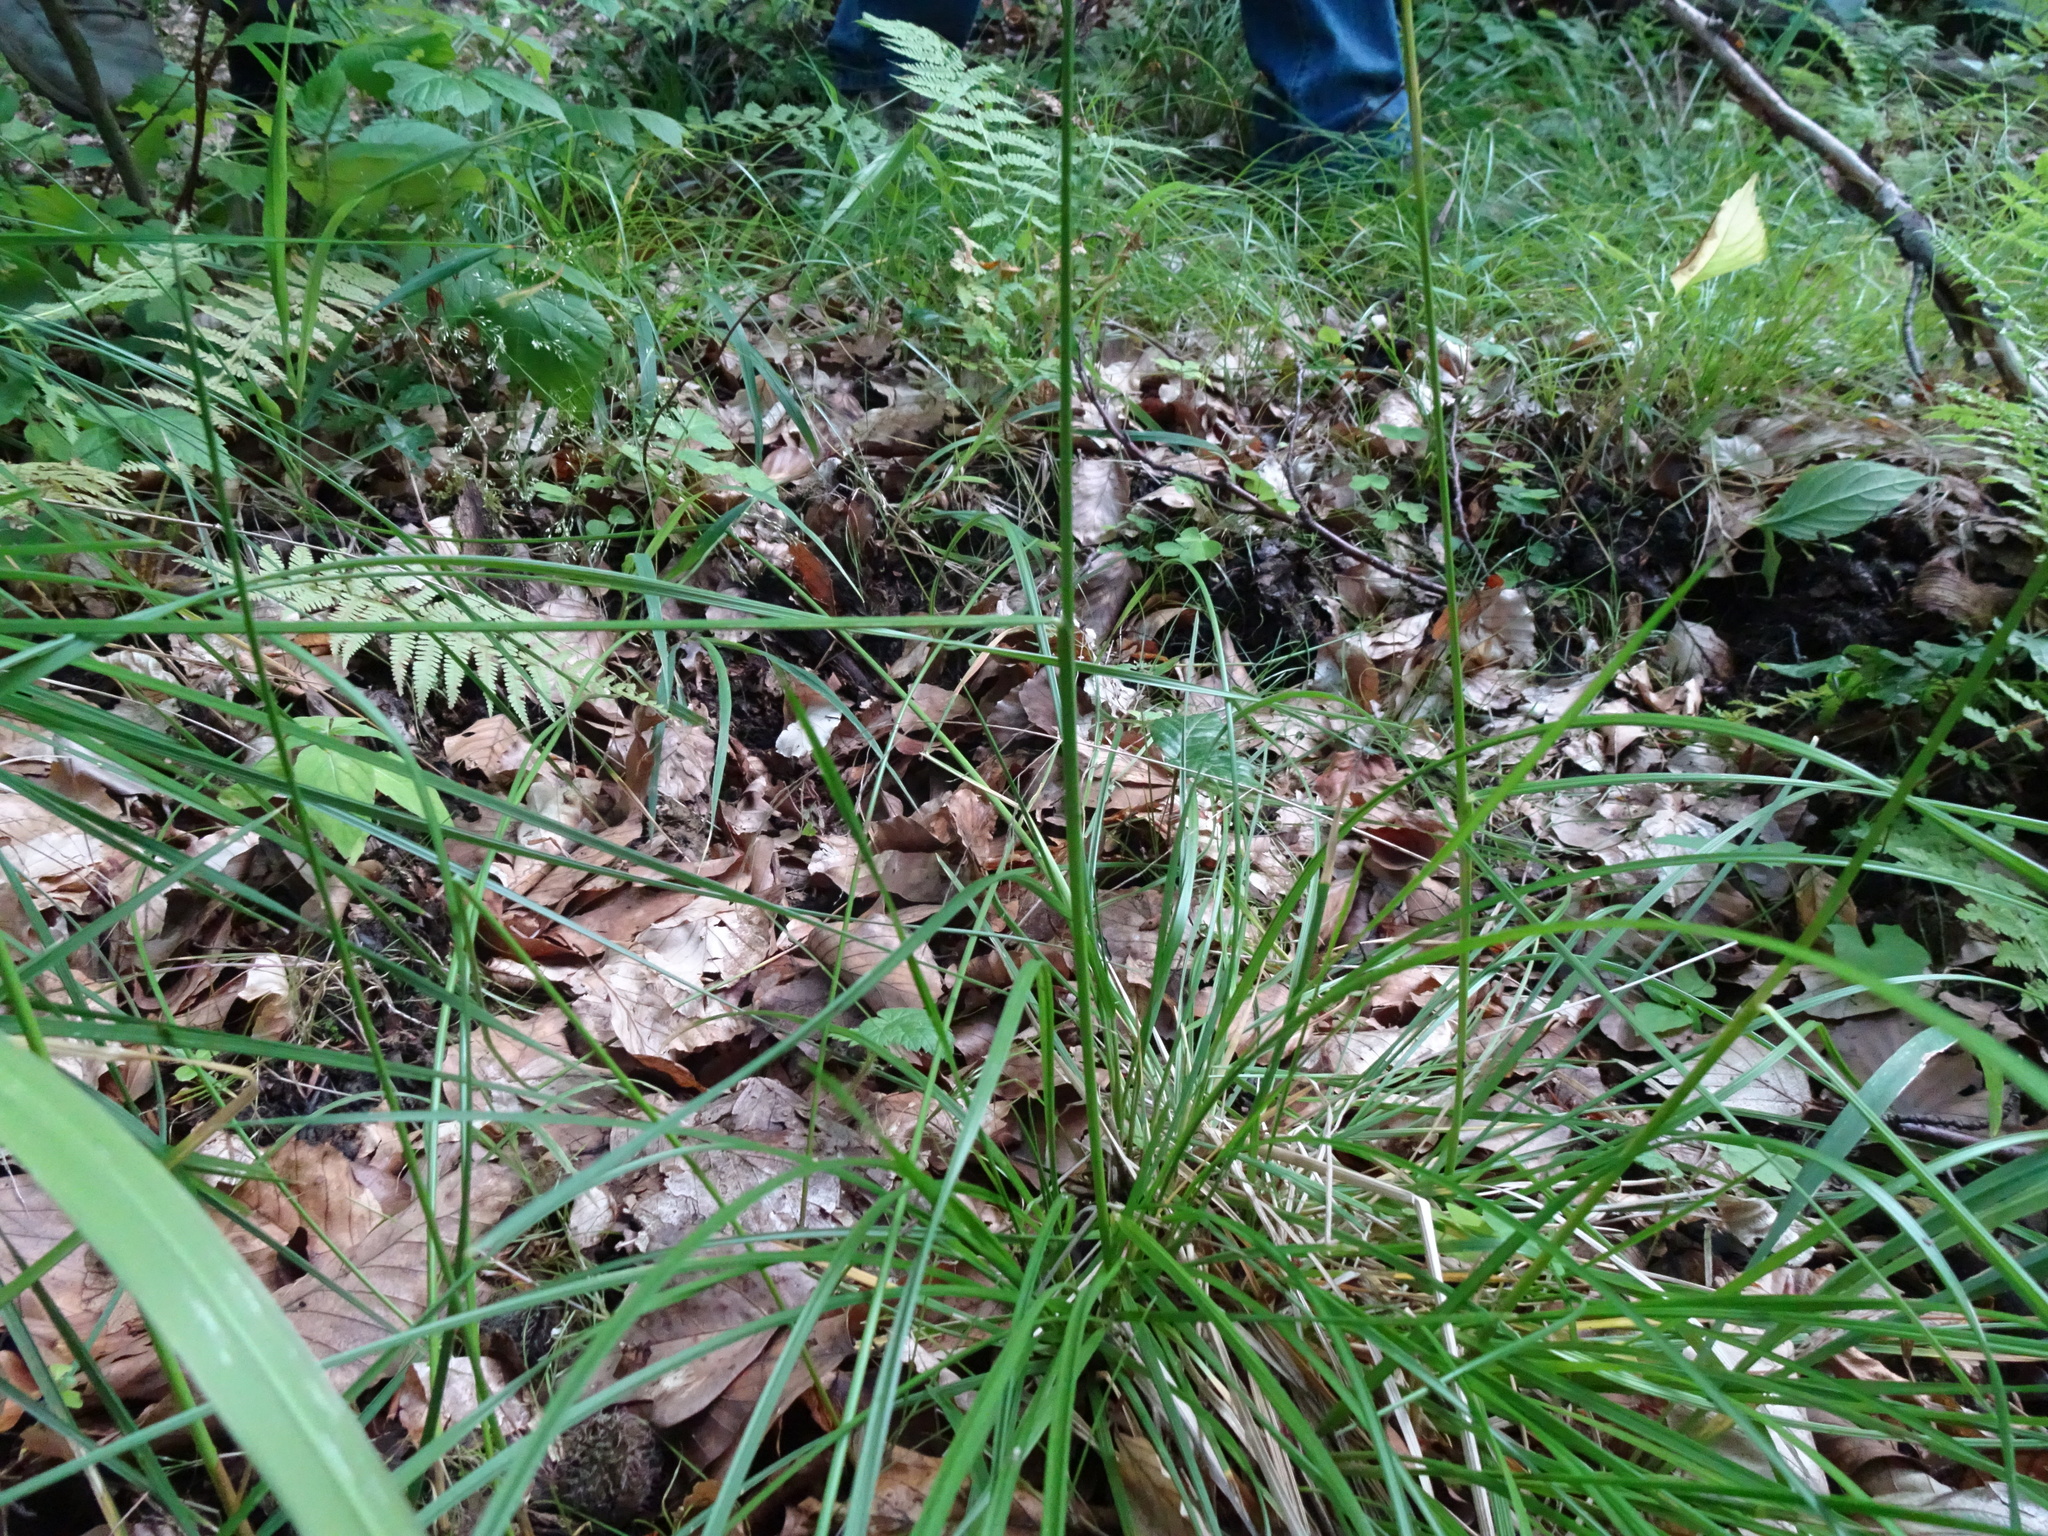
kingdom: Plantae
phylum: Tracheophyta
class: Liliopsida
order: Poales
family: Poaceae
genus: Poa
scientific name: Poa nemoralis
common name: Wood bluegrass
